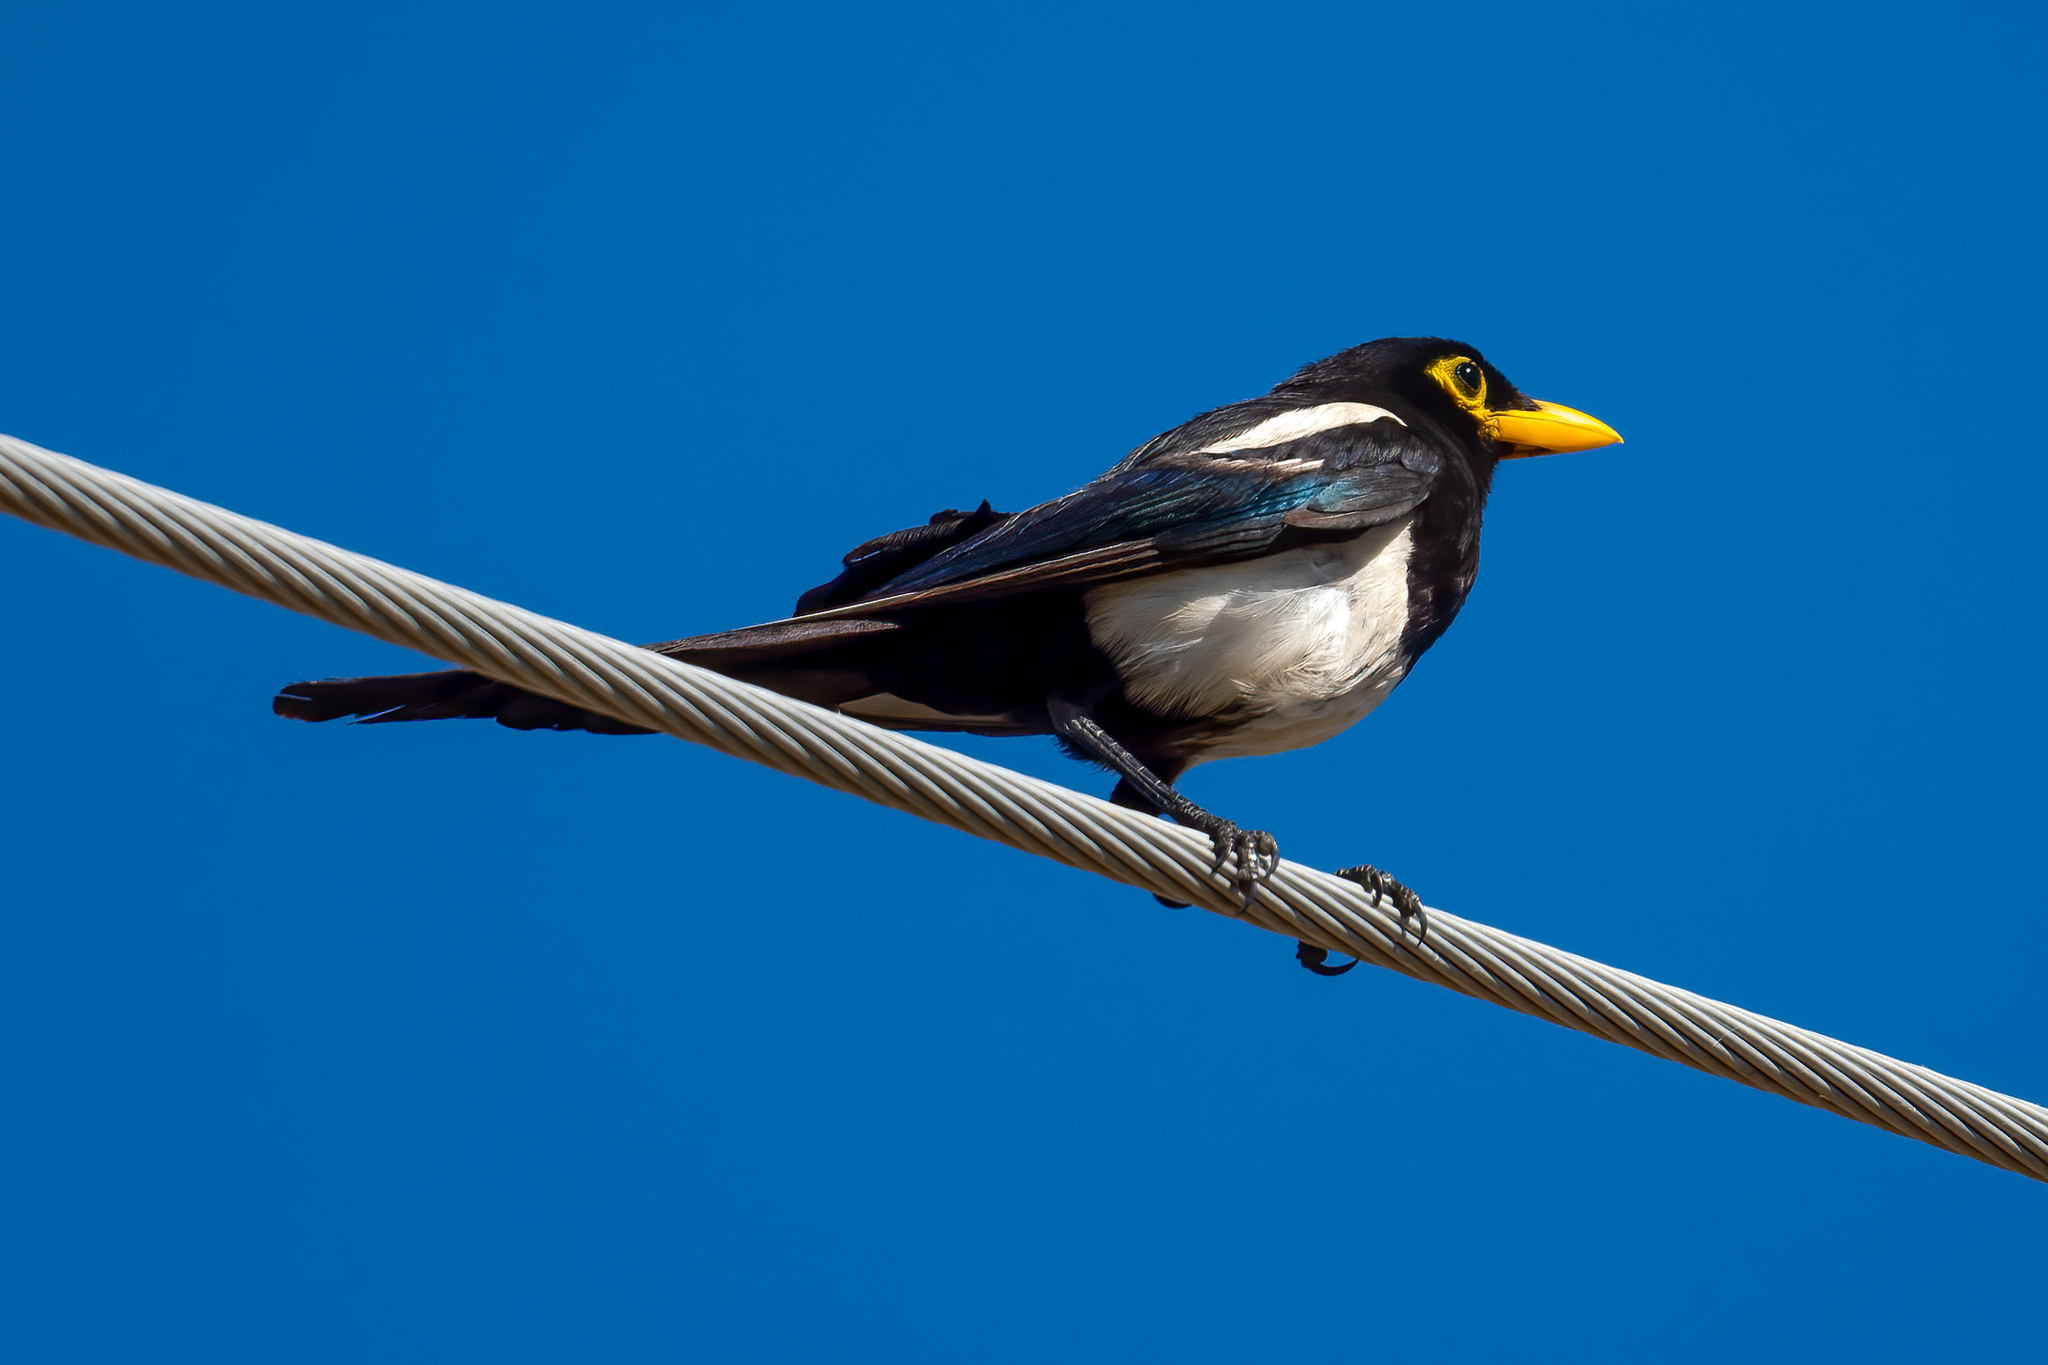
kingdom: Animalia
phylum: Chordata
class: Aves
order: Passeriformes
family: Corvidae
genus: Pica
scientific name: Pica nuttalli
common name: Yellow-billed magpie
